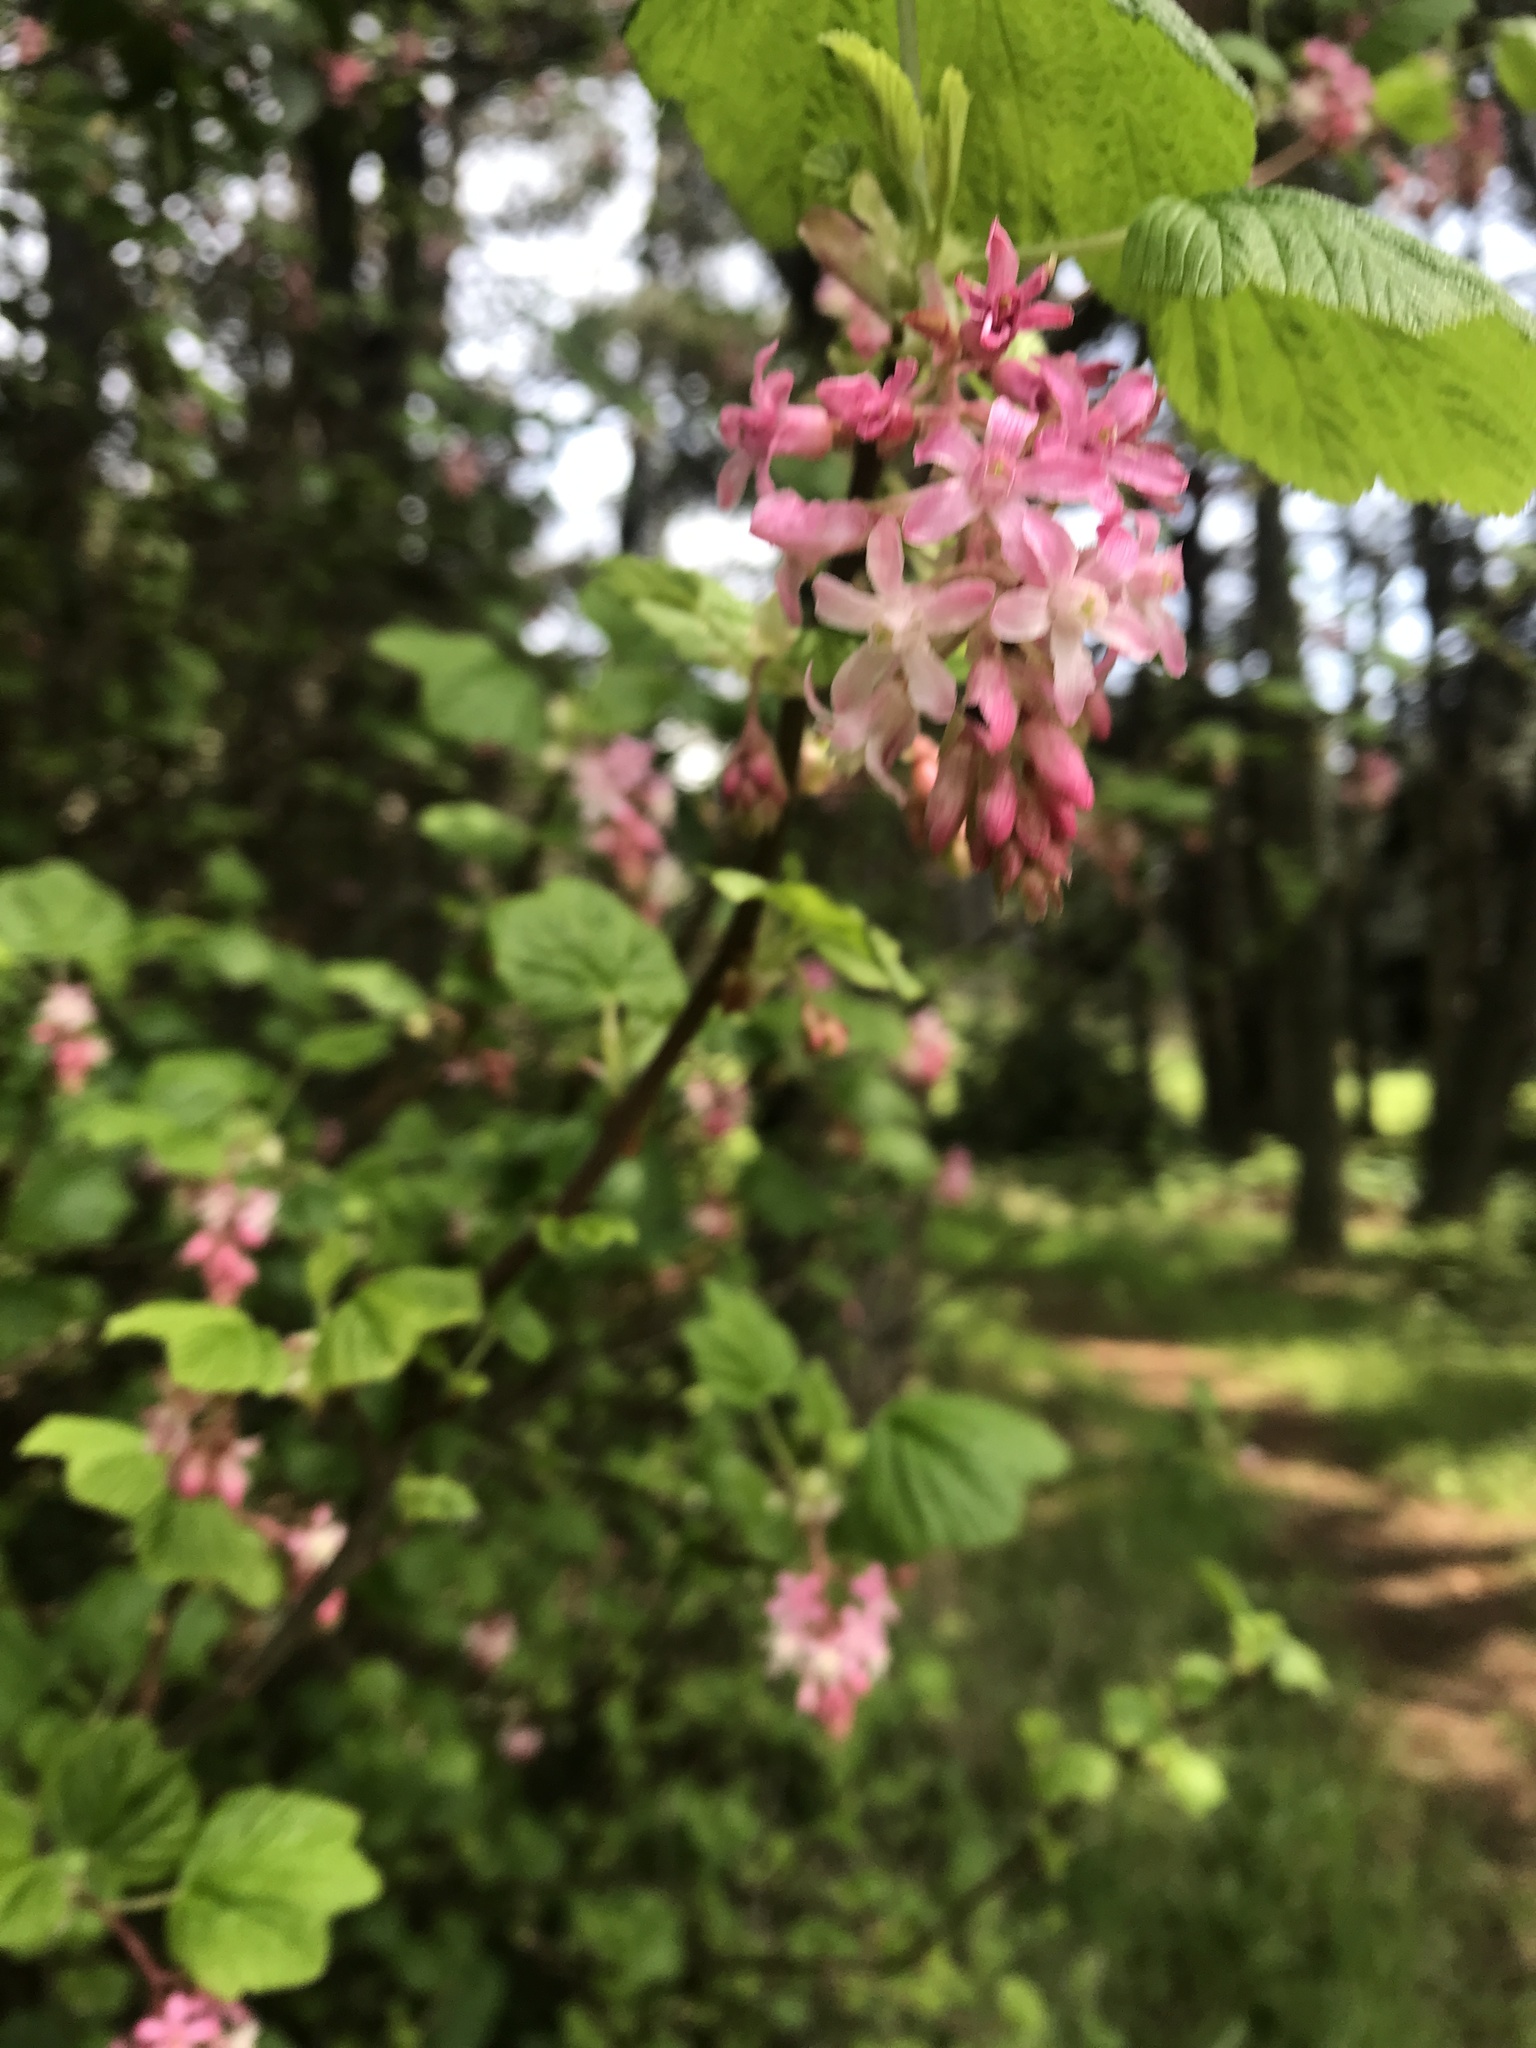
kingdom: Plantae
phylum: Tracheophyta
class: Magnoliopsida
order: Saxifragales
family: Grossulariaceae
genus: Ribes
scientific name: Ribes sanguineum
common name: Flowering currant
